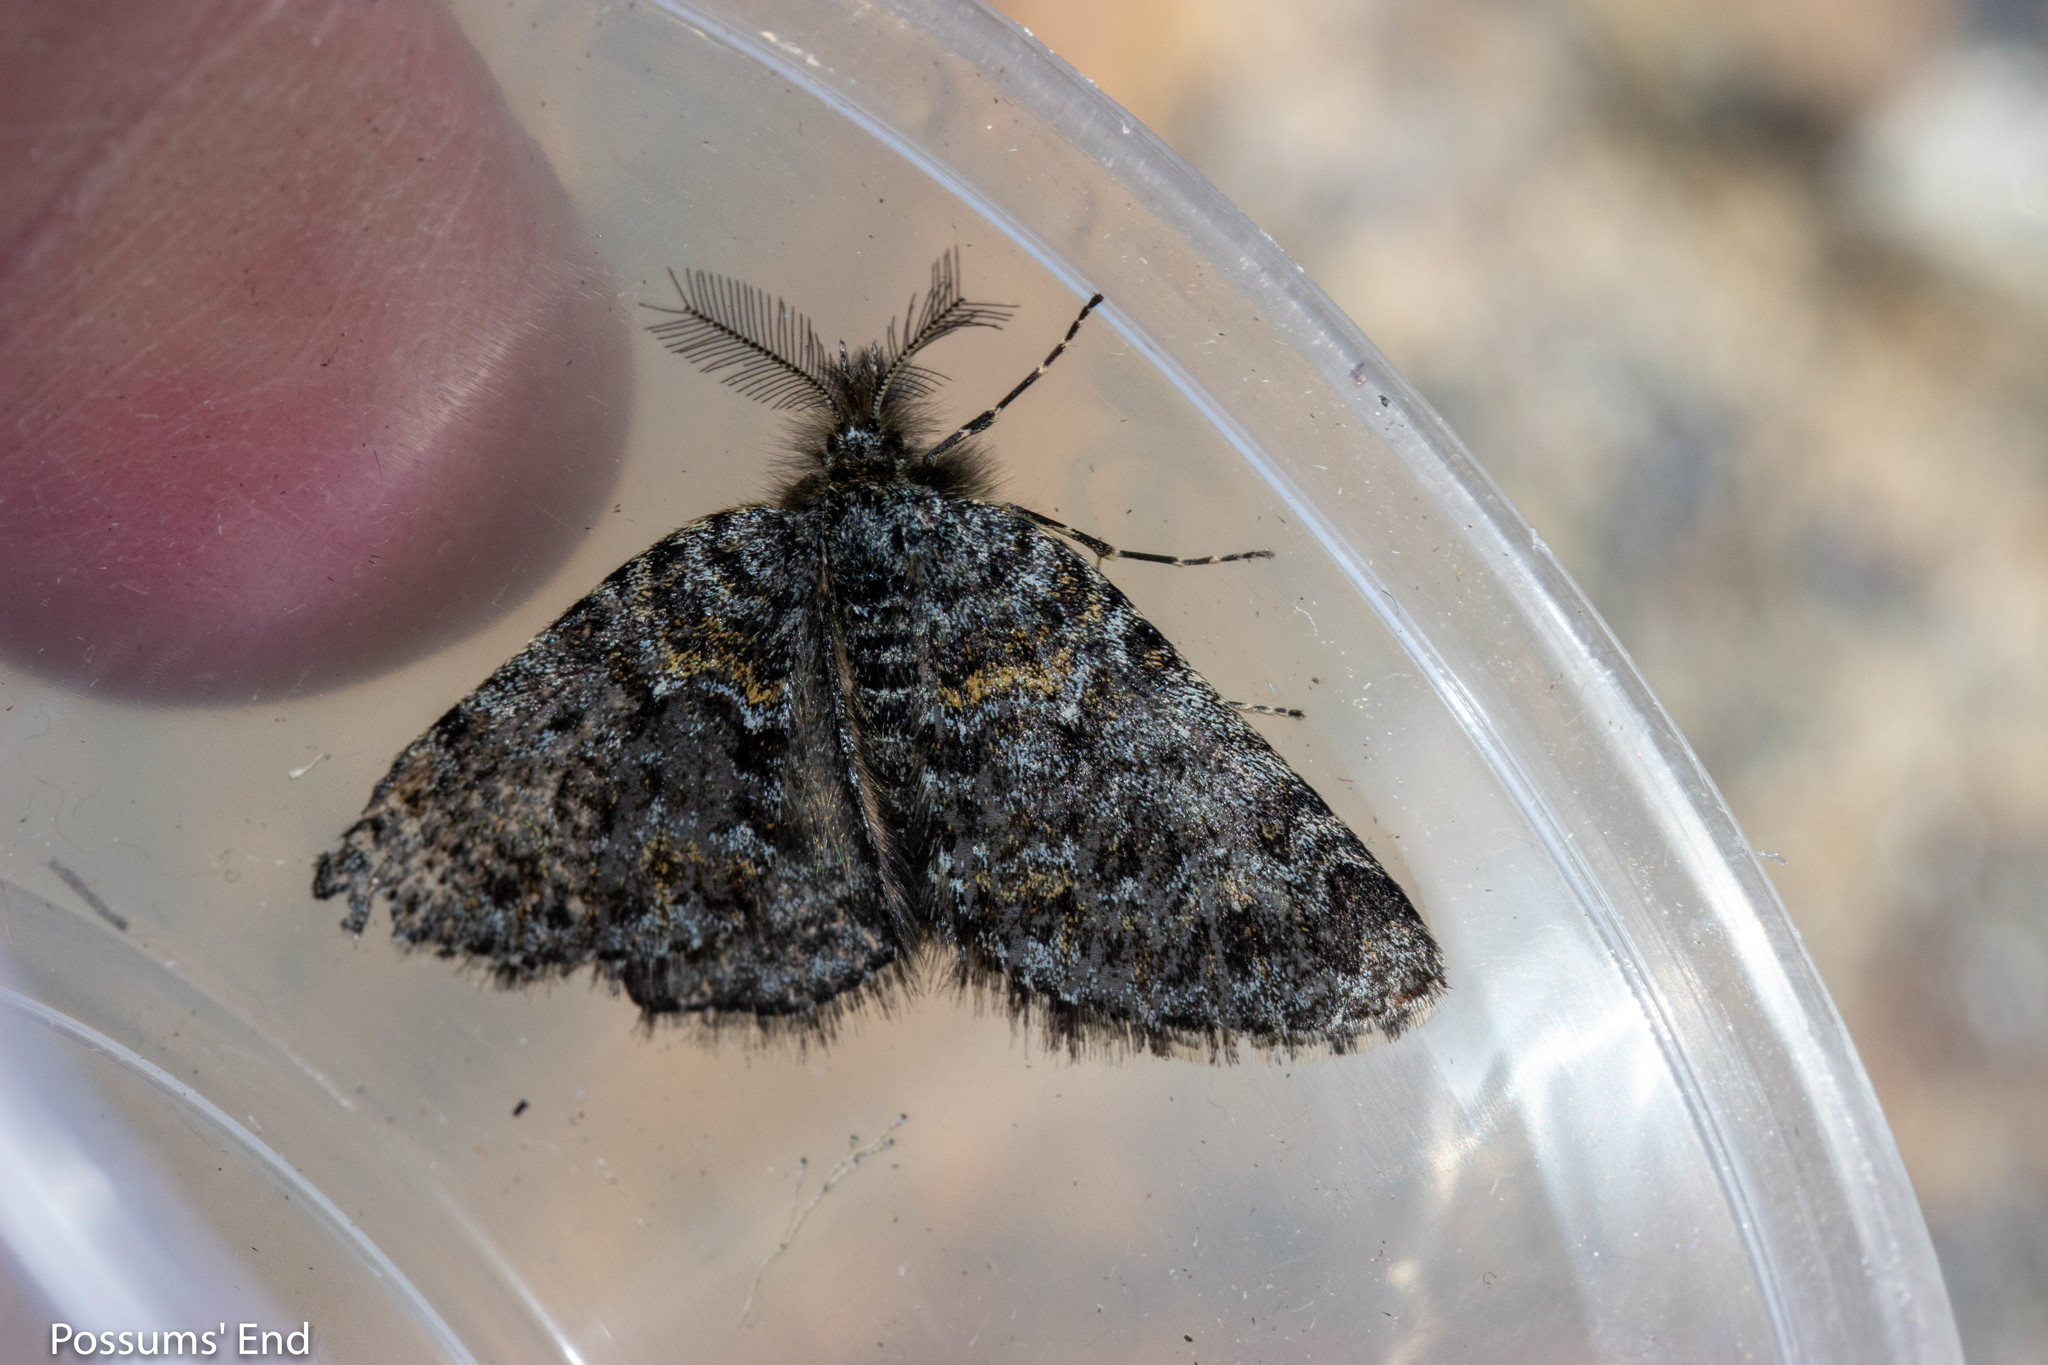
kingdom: Animalia
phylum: Arthropoda
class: Insecta
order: Lepidoptera
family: Geometridae
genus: Aponotoreas
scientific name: Aponotoreas orphnaea
